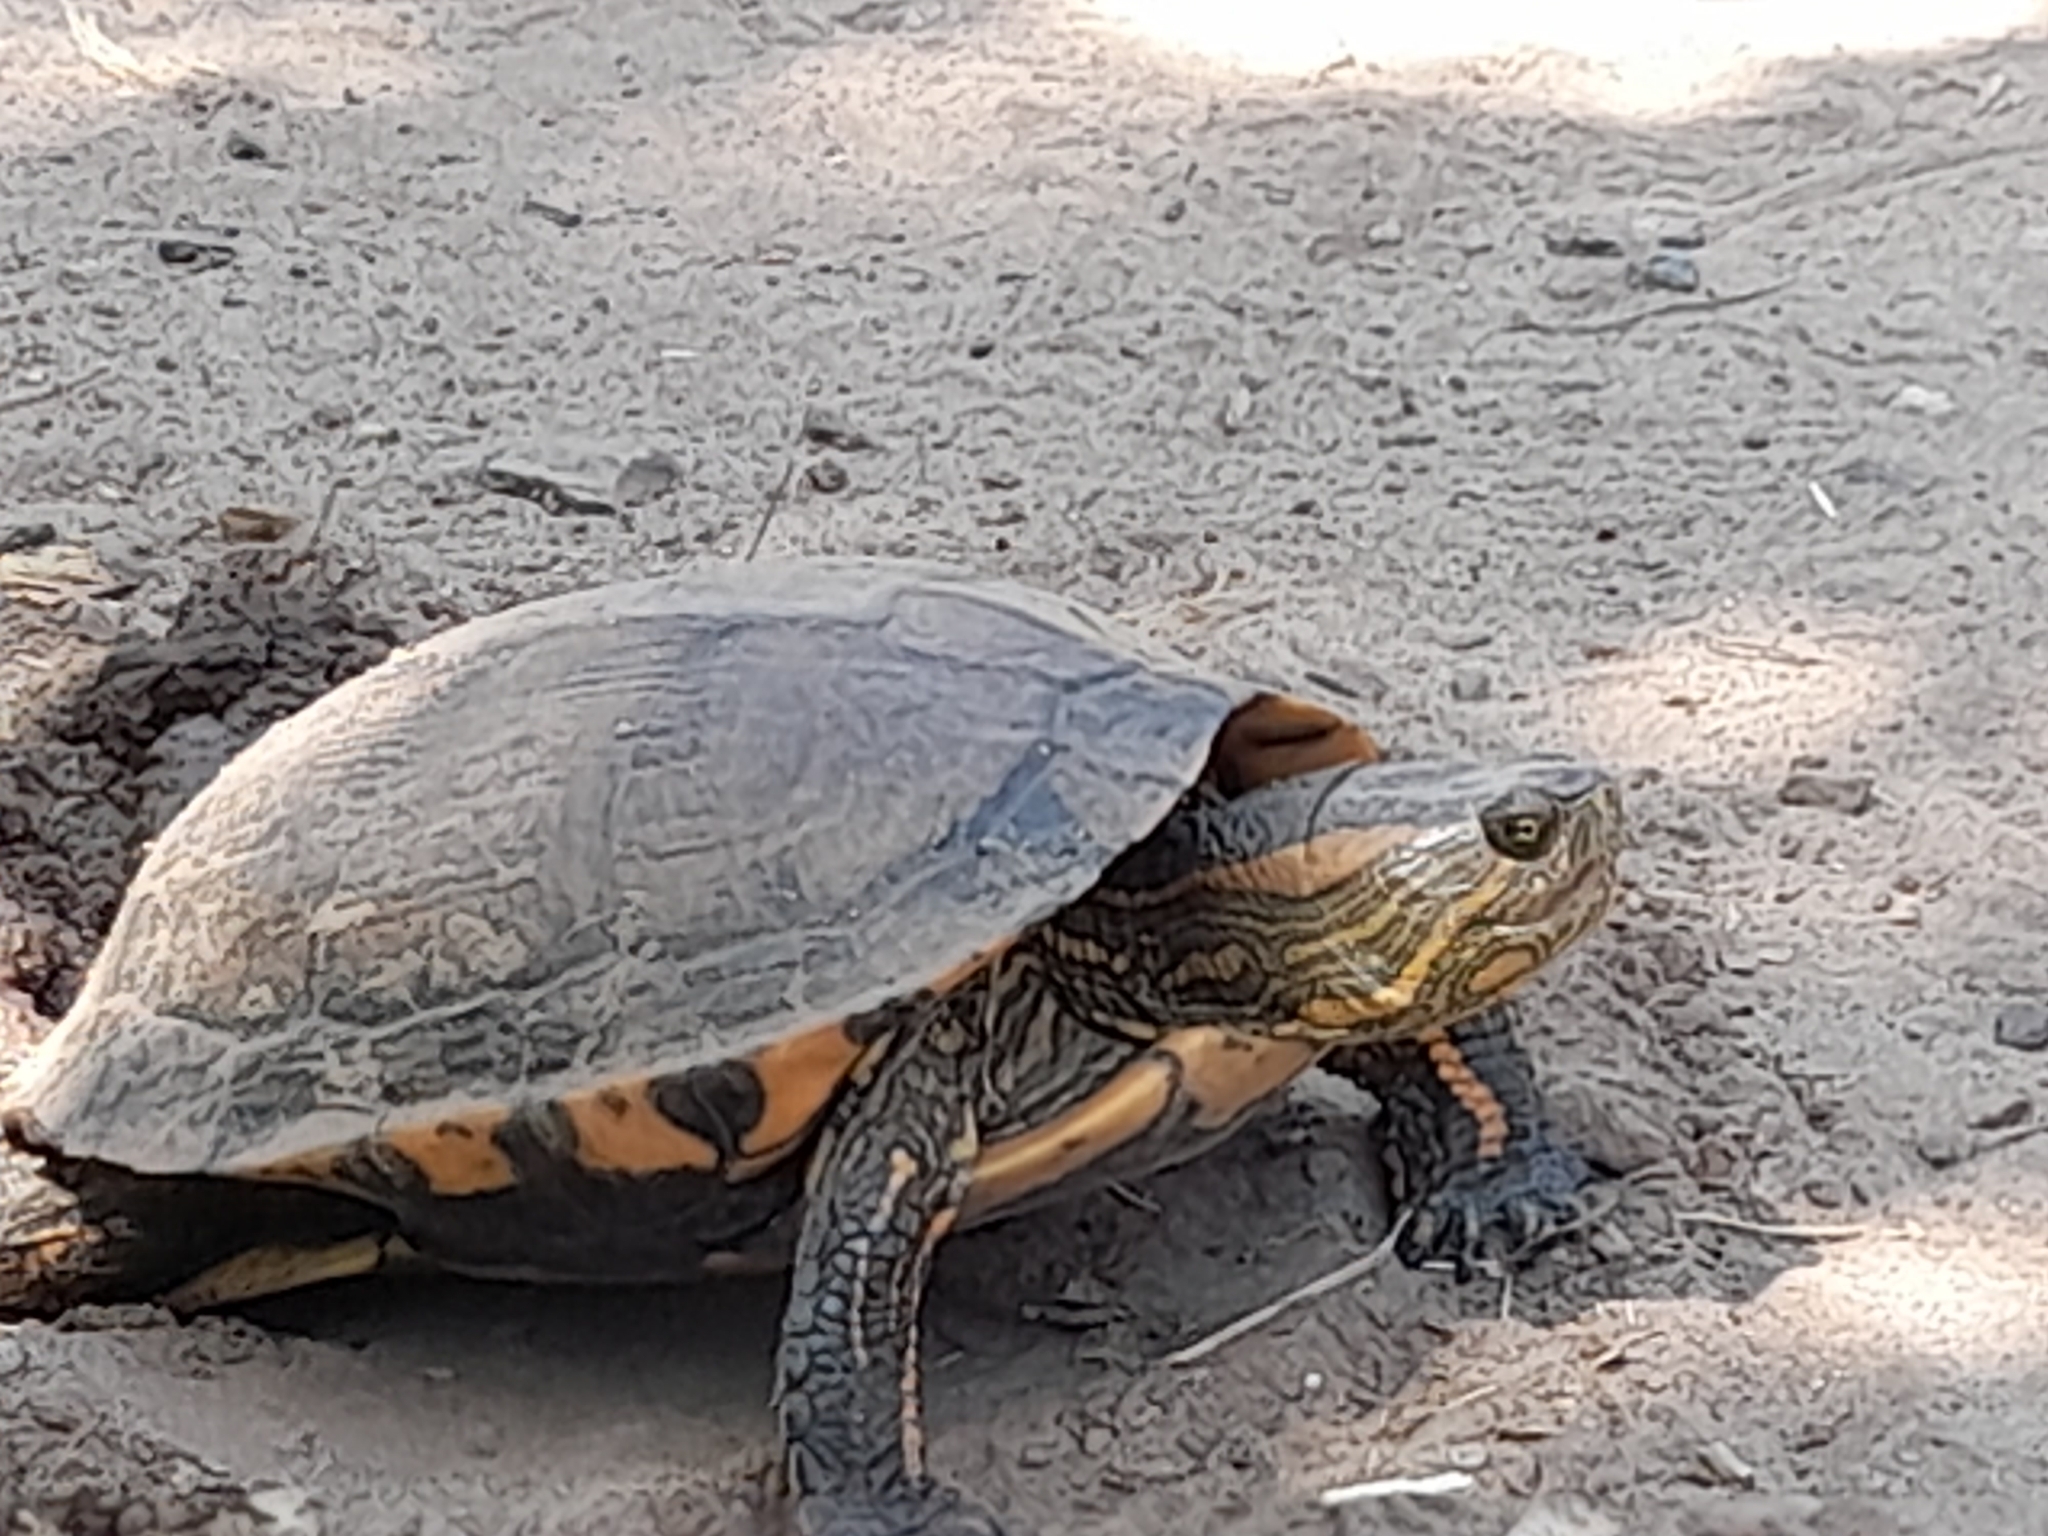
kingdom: Animalia
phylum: Chordata
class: Testudines
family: Emydidae
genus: Trachemys
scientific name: Trachemys dorbigni
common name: Black-bellied slider
